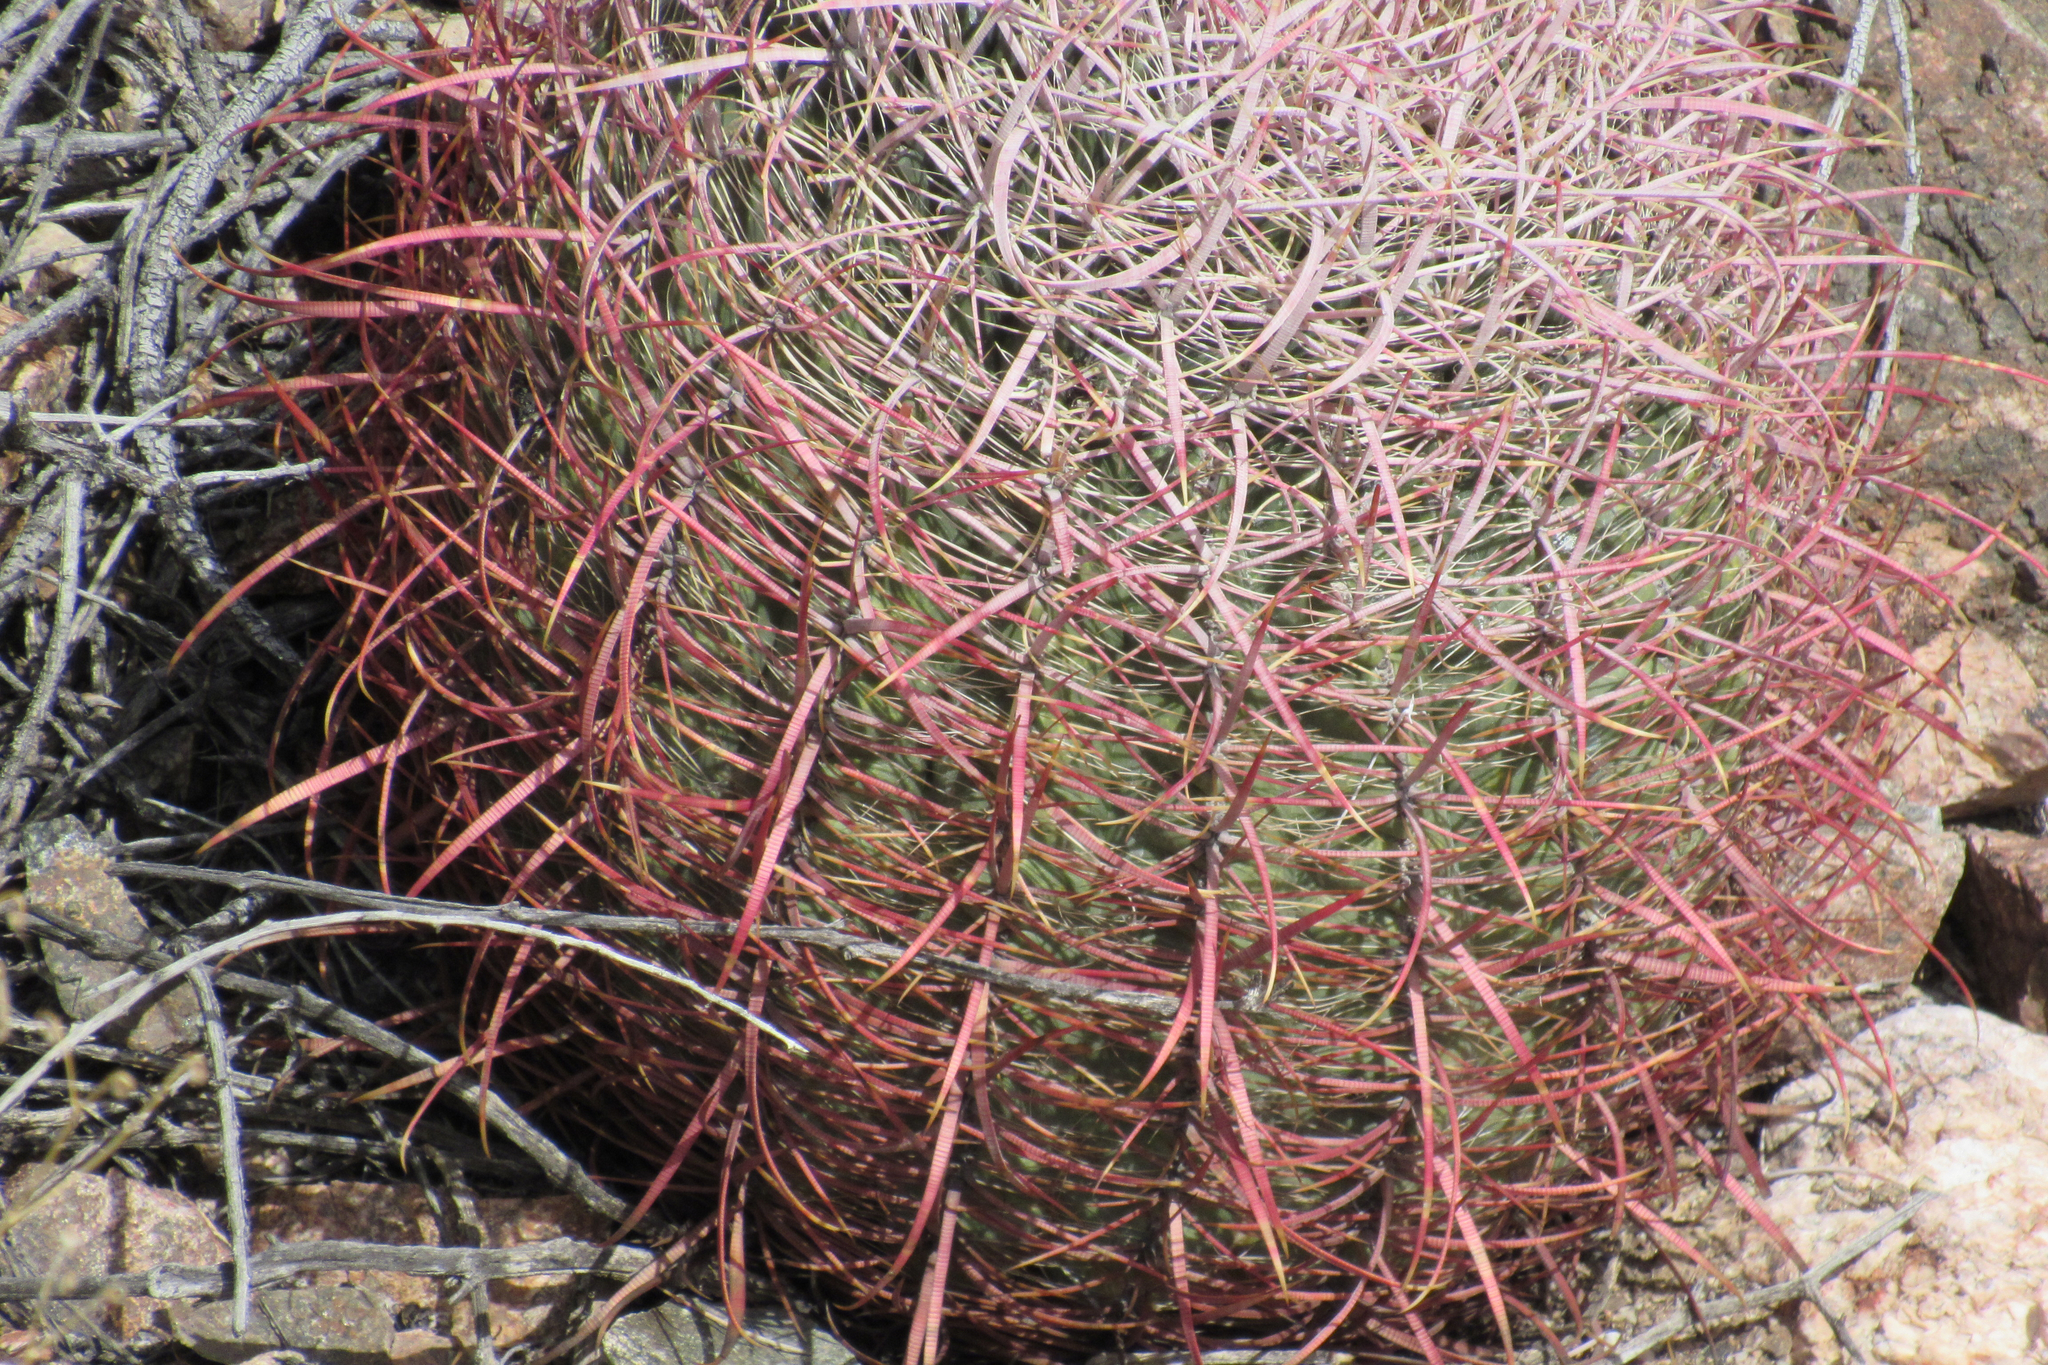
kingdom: Plantae
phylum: Tracheophyta
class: Magnoliopsida
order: Caryophyllales
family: Cactaceae
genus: Ferocactus
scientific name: Ferocactus cylindraceus
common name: California barrel cactus
